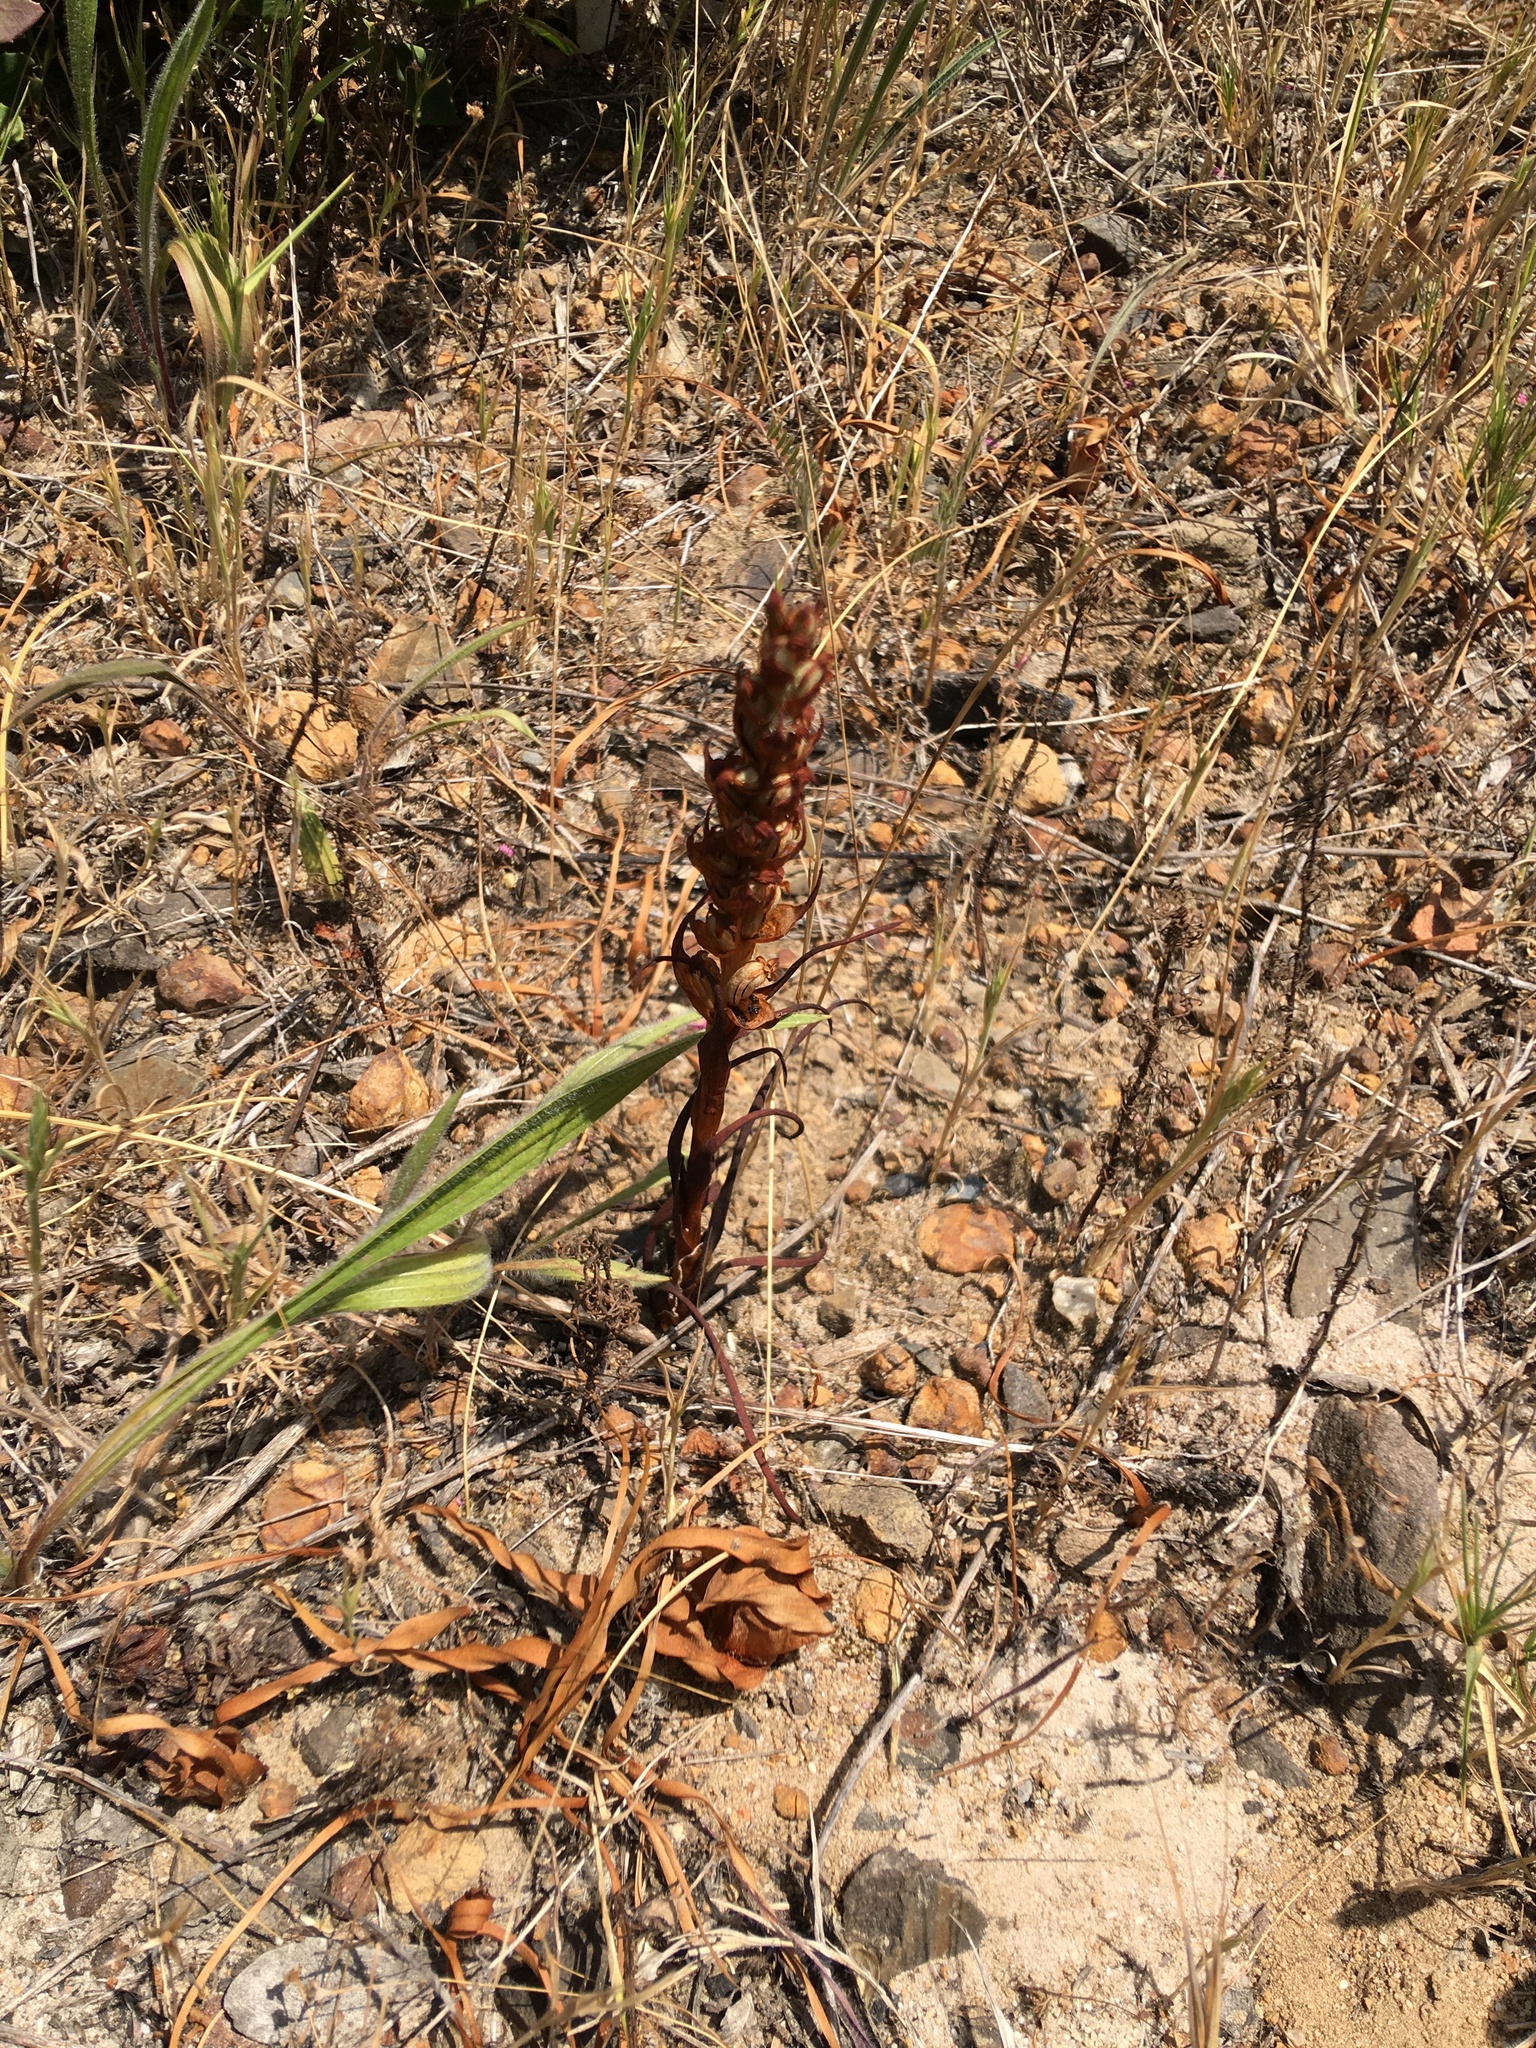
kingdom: Plantae
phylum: Tracheophyta
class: Liliopsida
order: Asparagales
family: Orchidaceae
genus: Disa
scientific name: Disa bracteata
